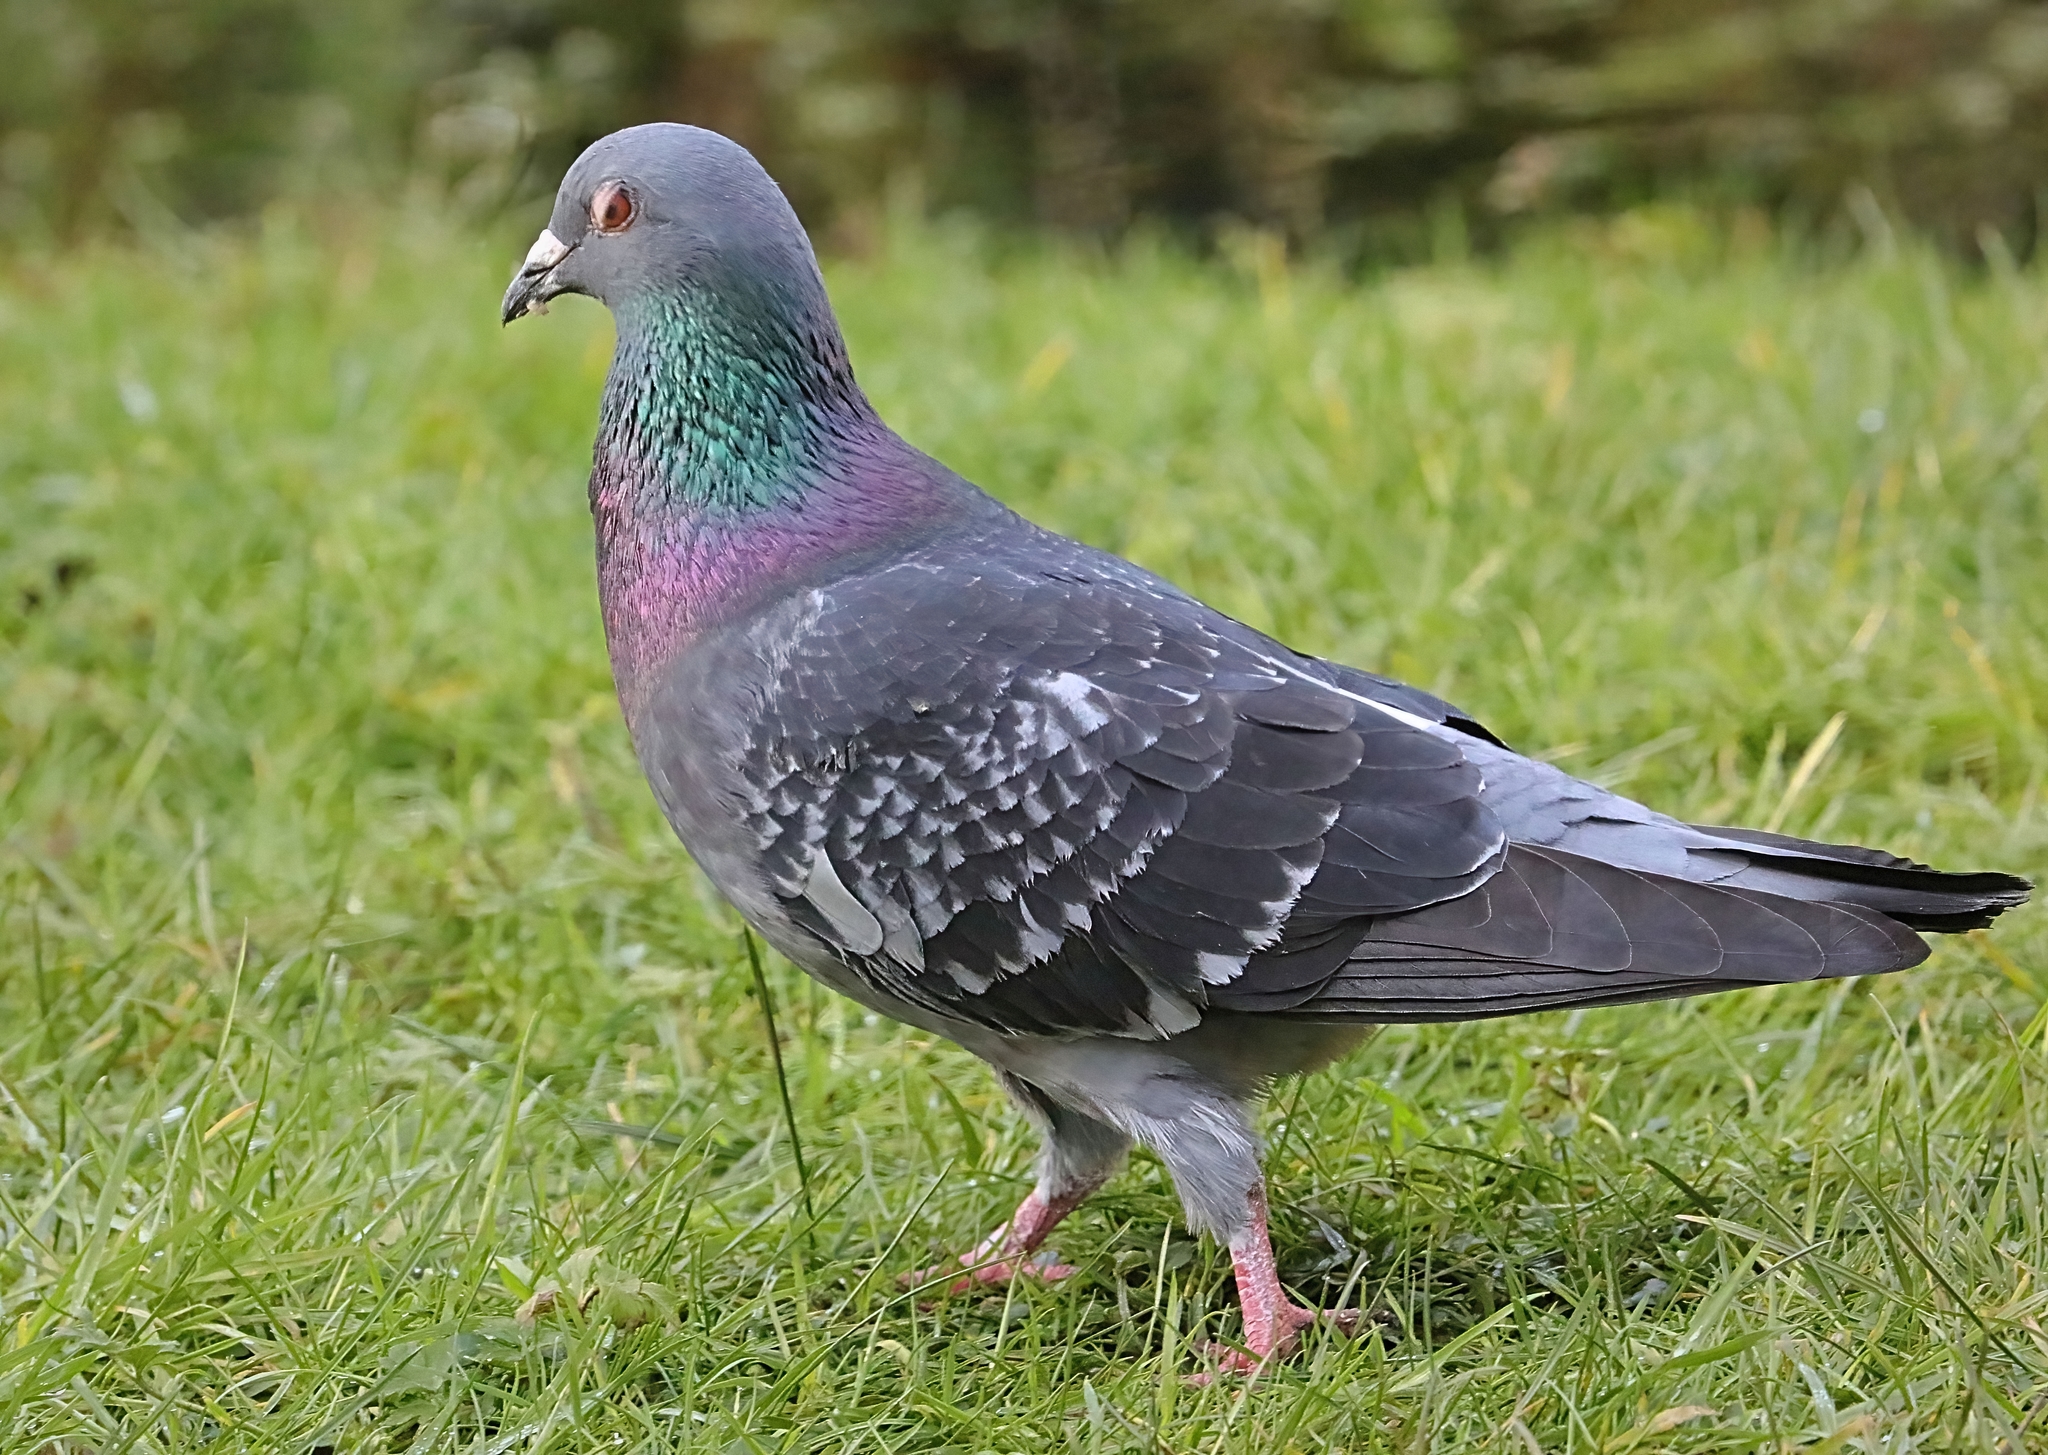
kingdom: Animalia
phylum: Chordata
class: Aves
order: Columbiformes
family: Columbidae
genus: Columba
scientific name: Columba livia
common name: Rock pigeon
